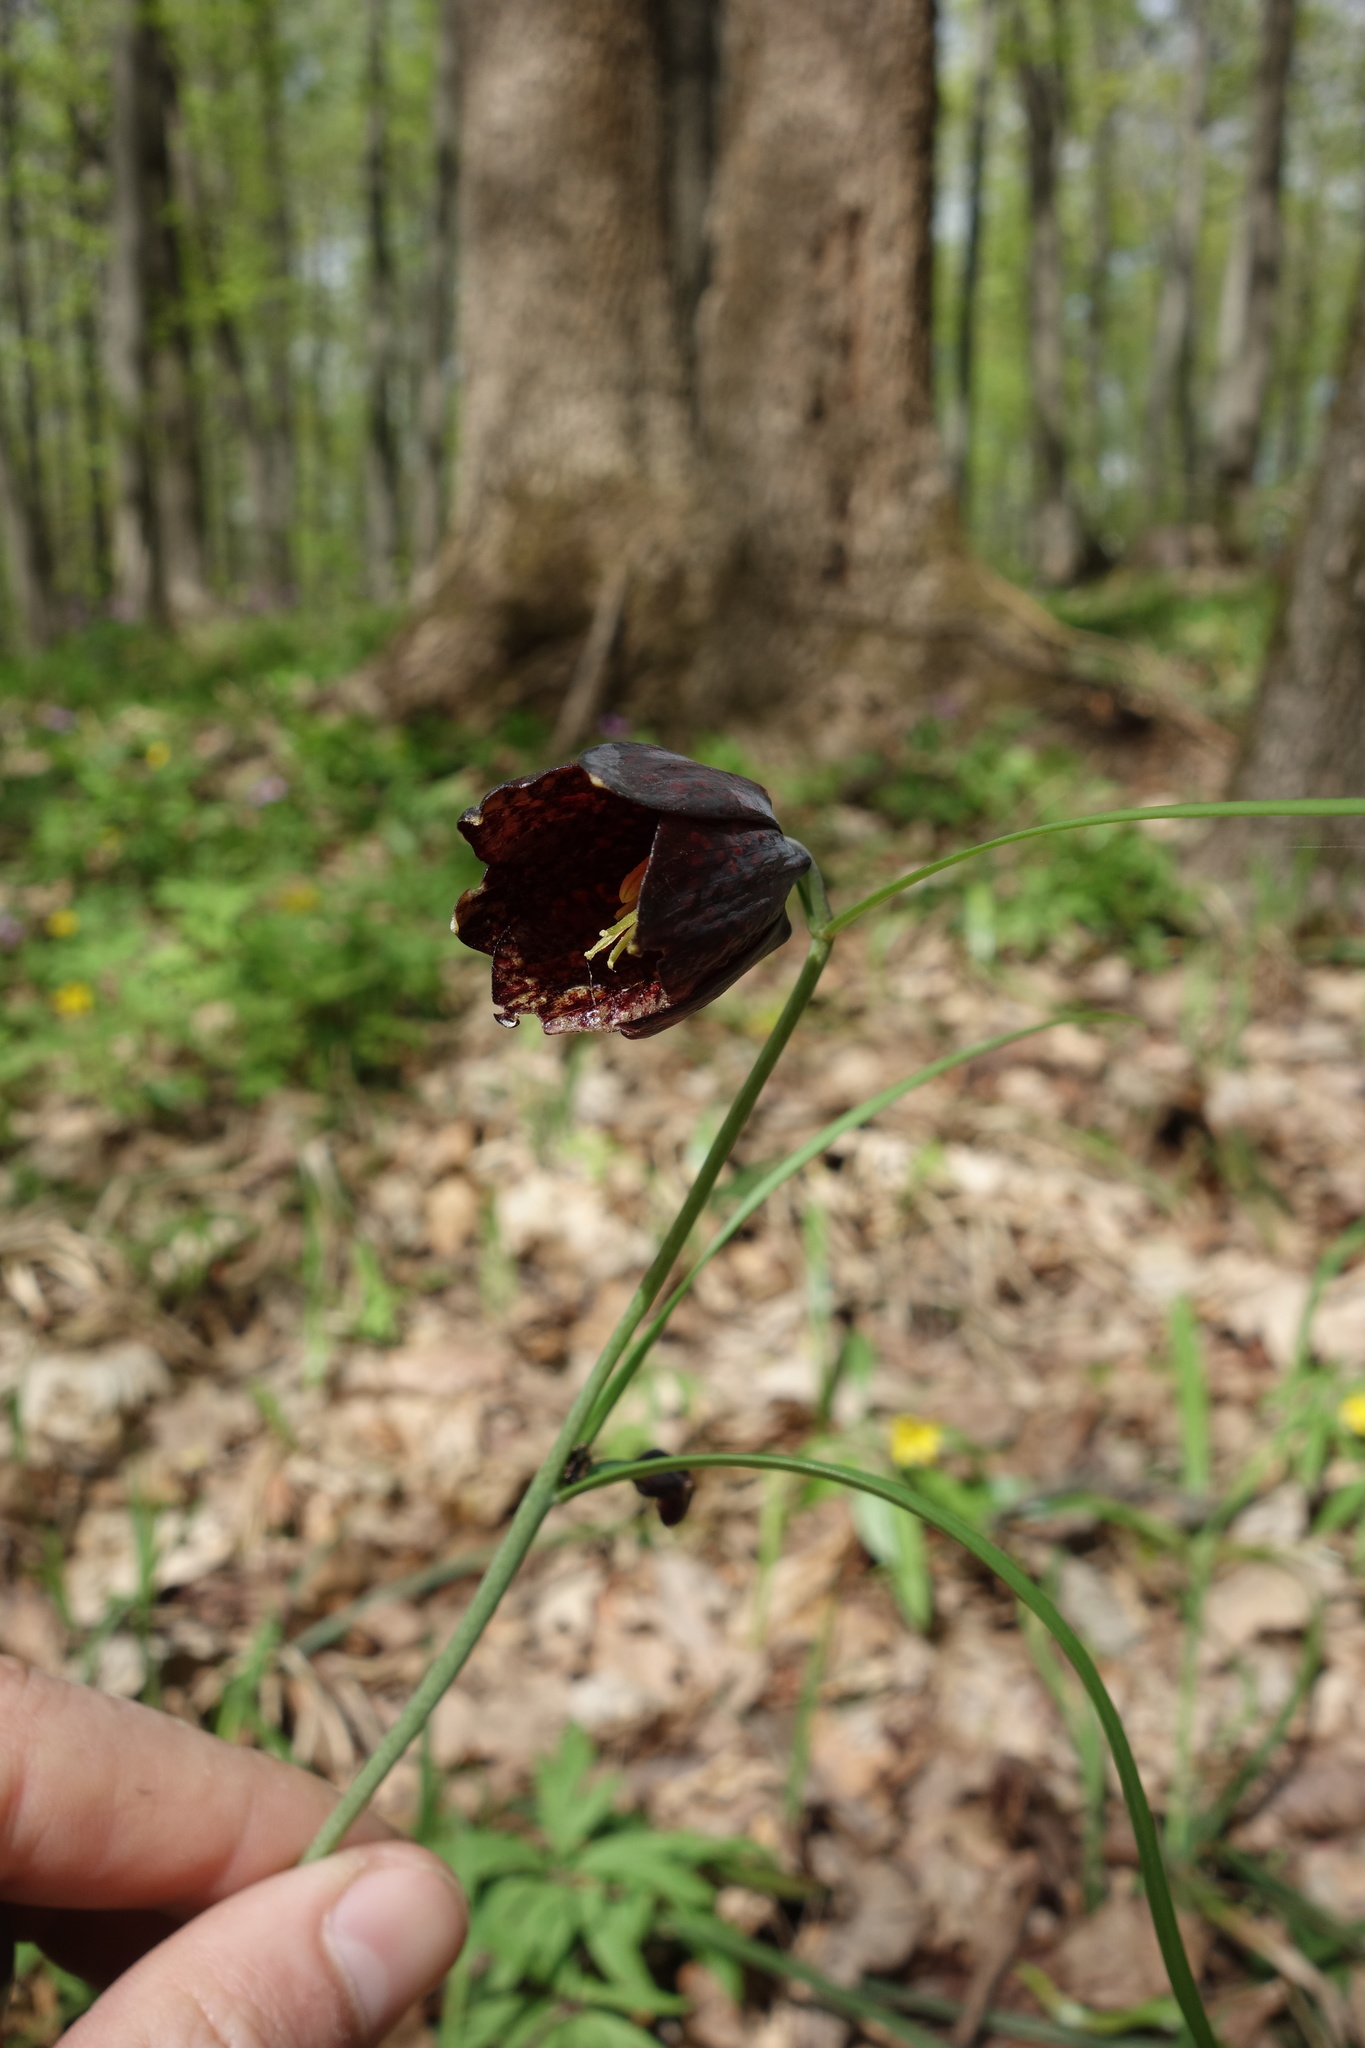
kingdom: Plantae
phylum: Tracheophyta
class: Liliopsida
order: Liliales
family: Liliaceae
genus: Fritillaria
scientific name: Fritillaria ruthenica
